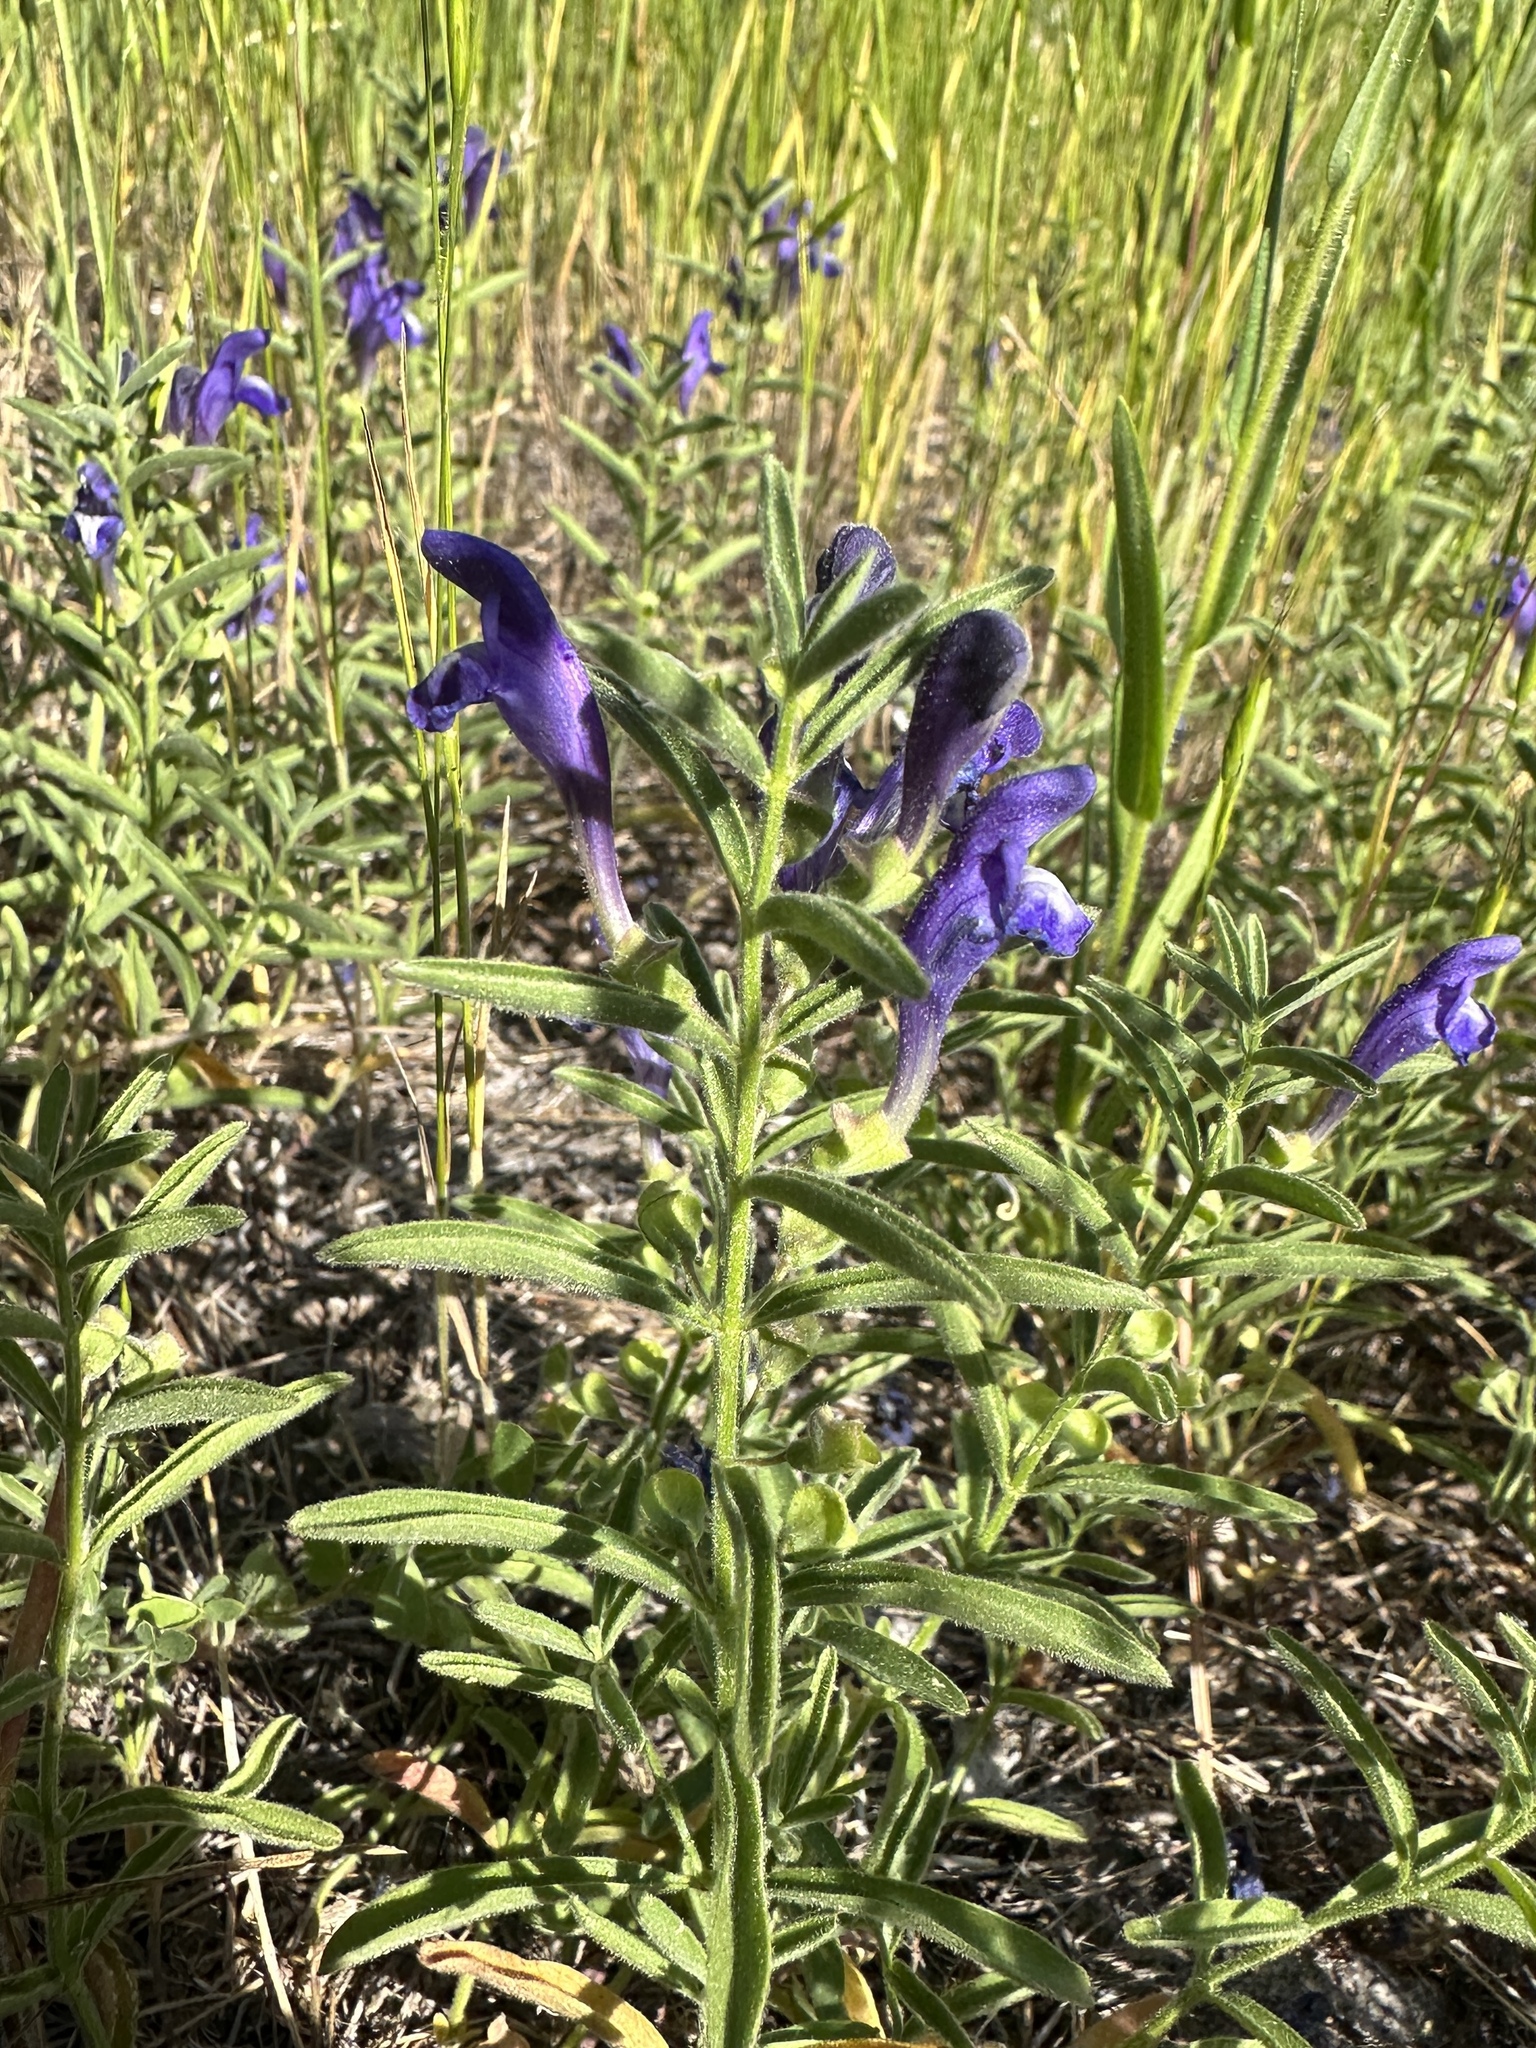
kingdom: Plantae
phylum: Tracheophyta
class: Magnoliopsida
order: Lamiales
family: Lamiaceae
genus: Scutellaria
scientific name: Scutellaria siphocampyloides
